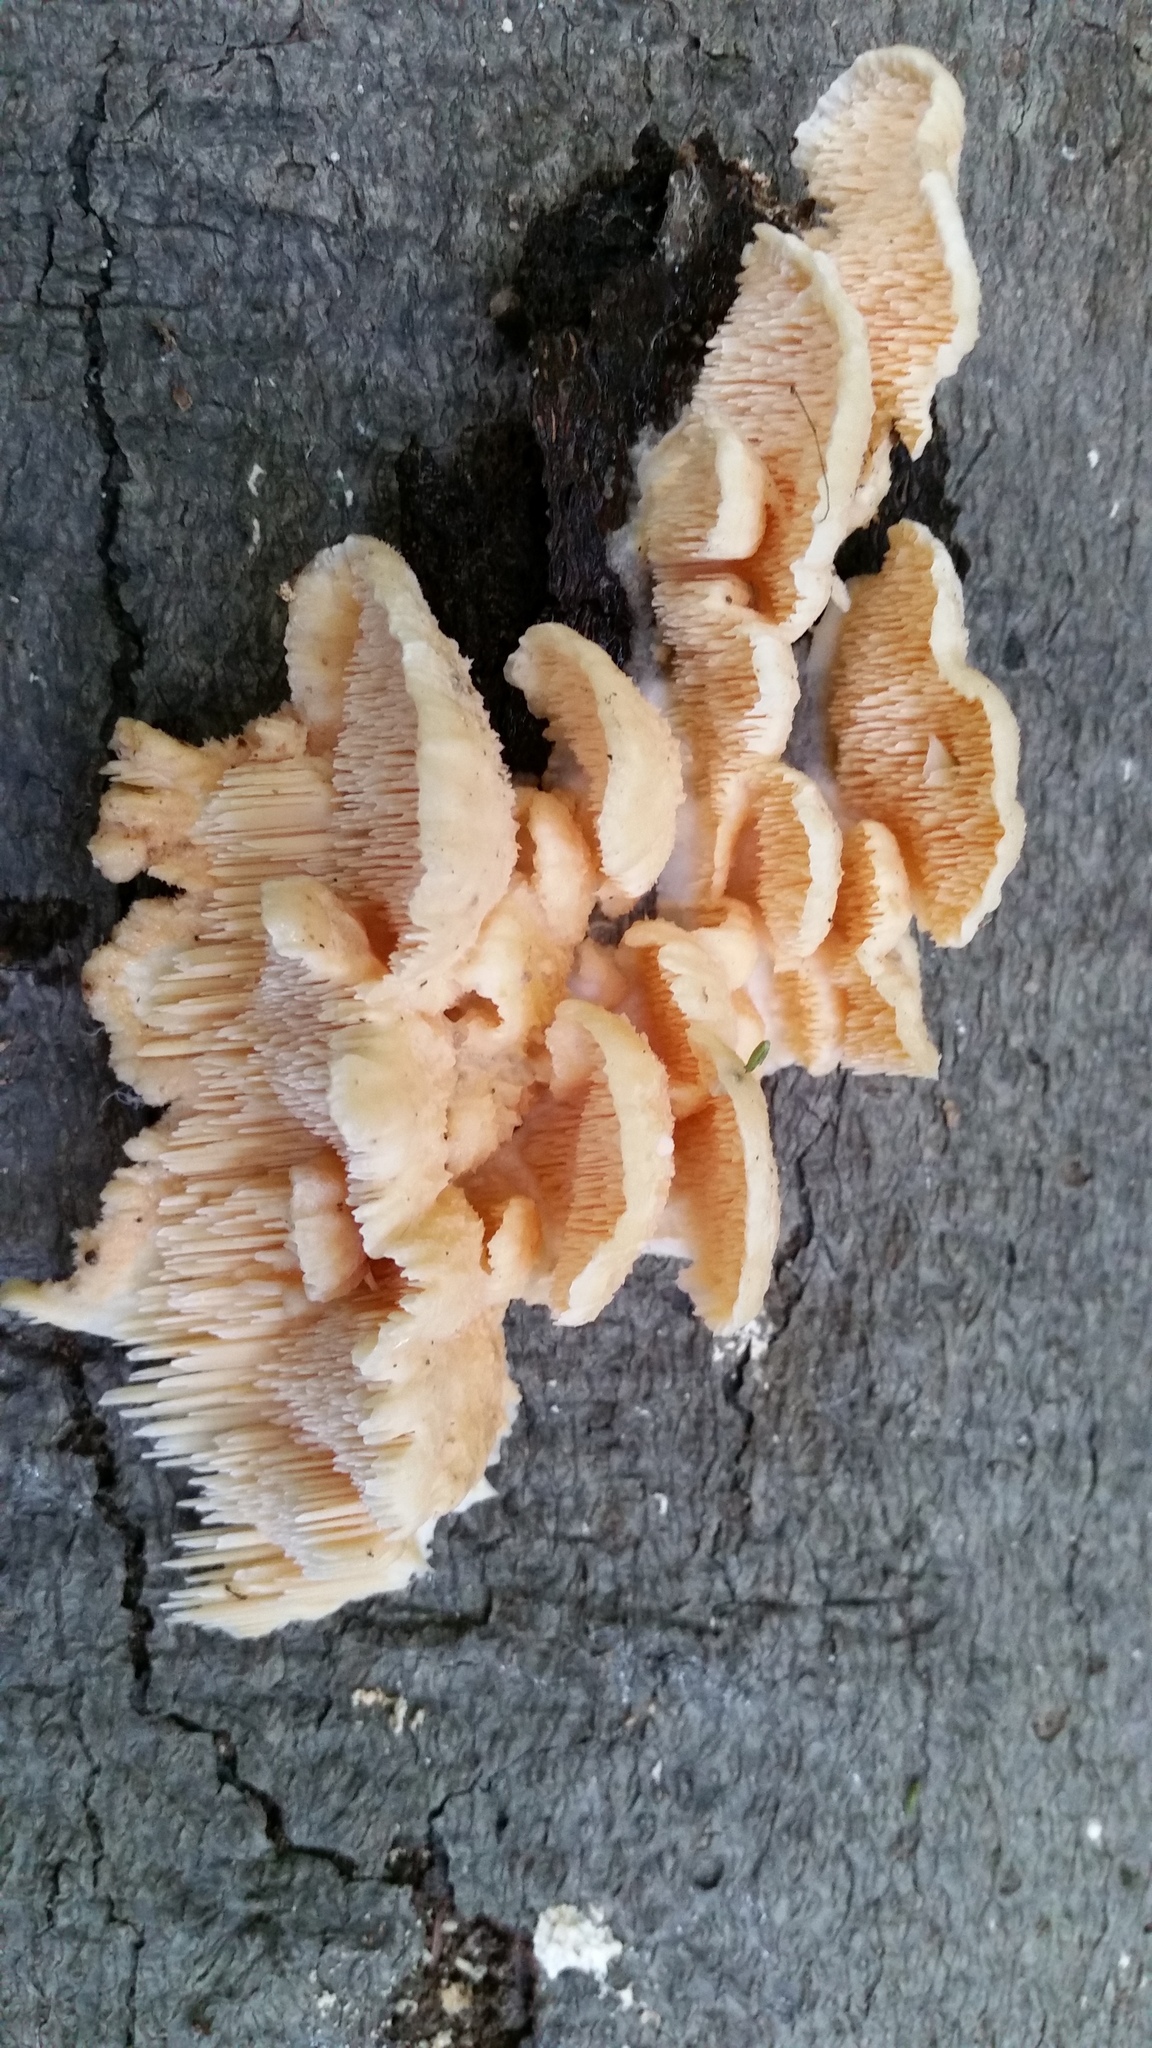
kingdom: Fungi
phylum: Basidiomycota
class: Agaricomycetes
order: Polyporales
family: Meruliaceae
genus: Irpiciporus
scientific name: Irpiciporus pachyodon
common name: Marshmallow polypore
